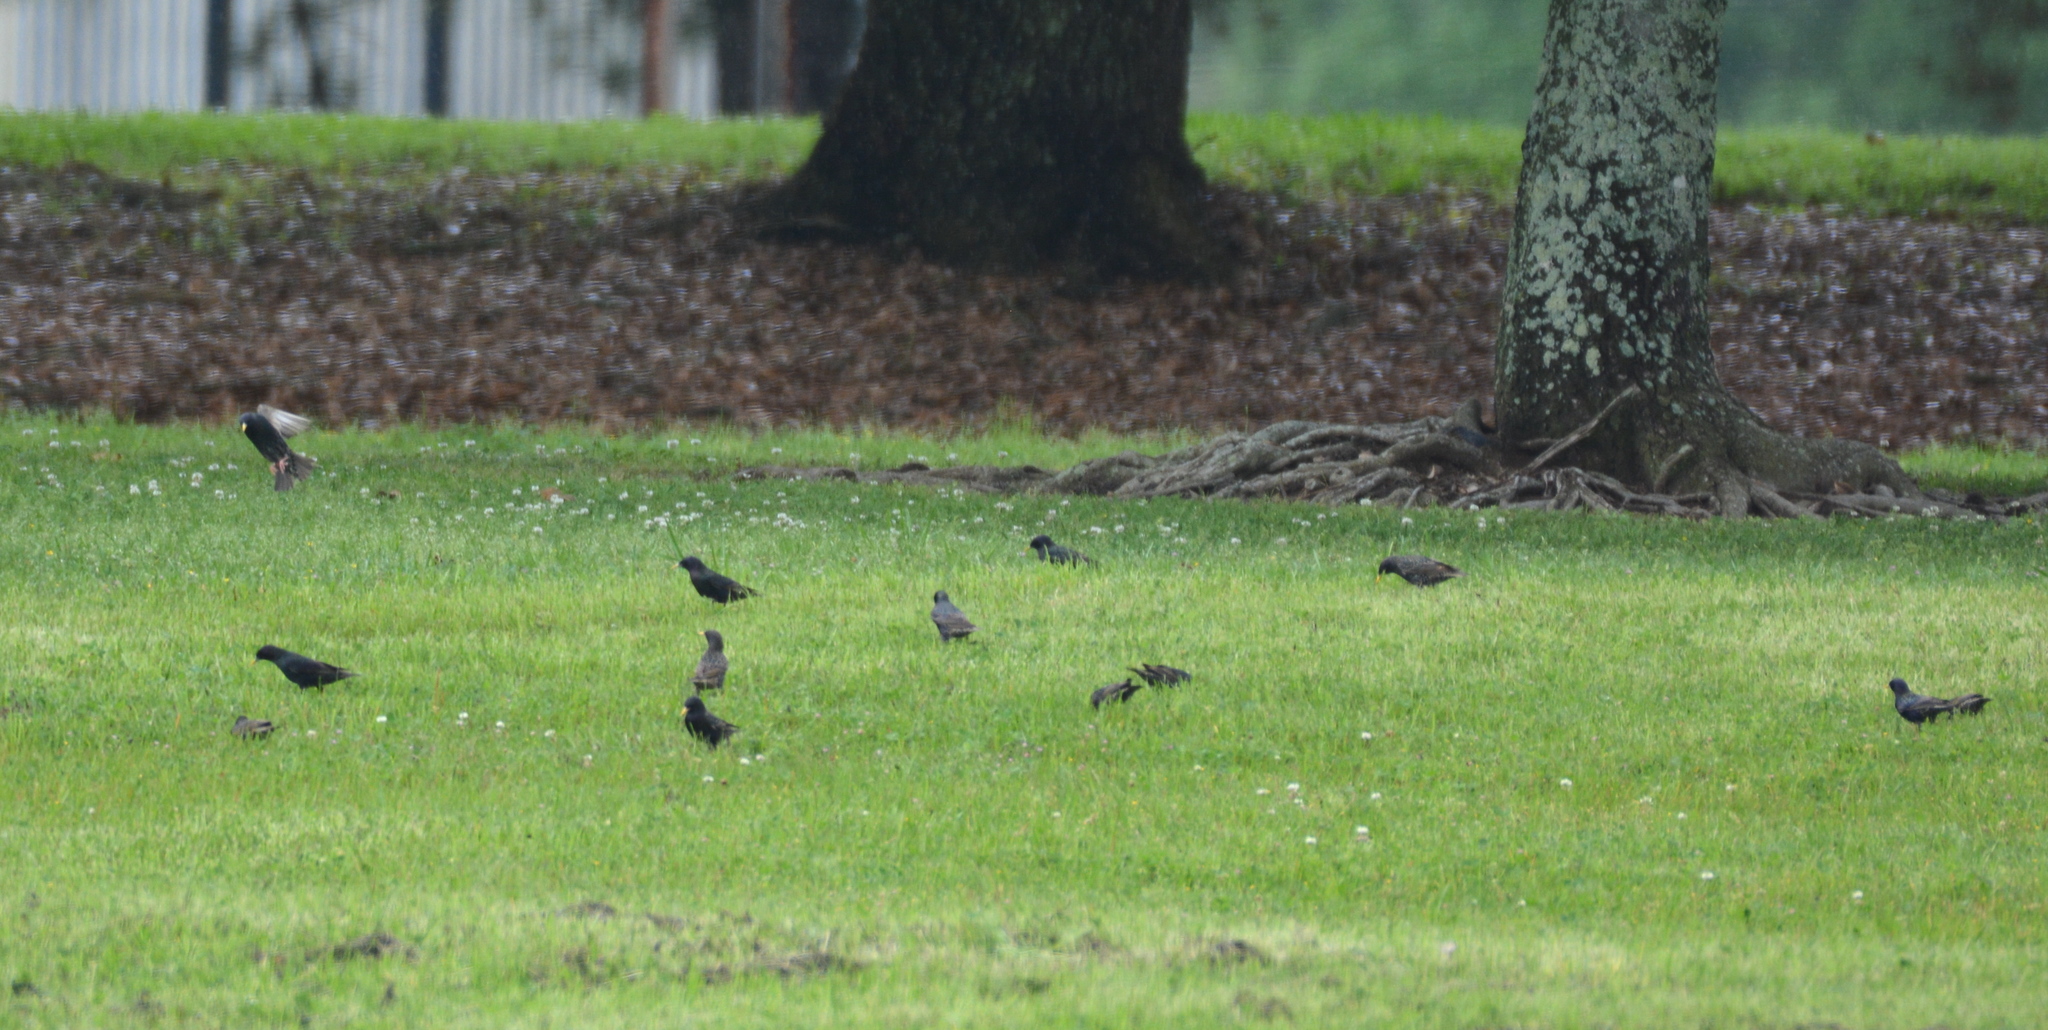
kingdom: Animalia
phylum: Chordata
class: Aves
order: Passeriformes
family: Sturnidae
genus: Sturnus
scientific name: Sturnus vulgaris
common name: Common starling
